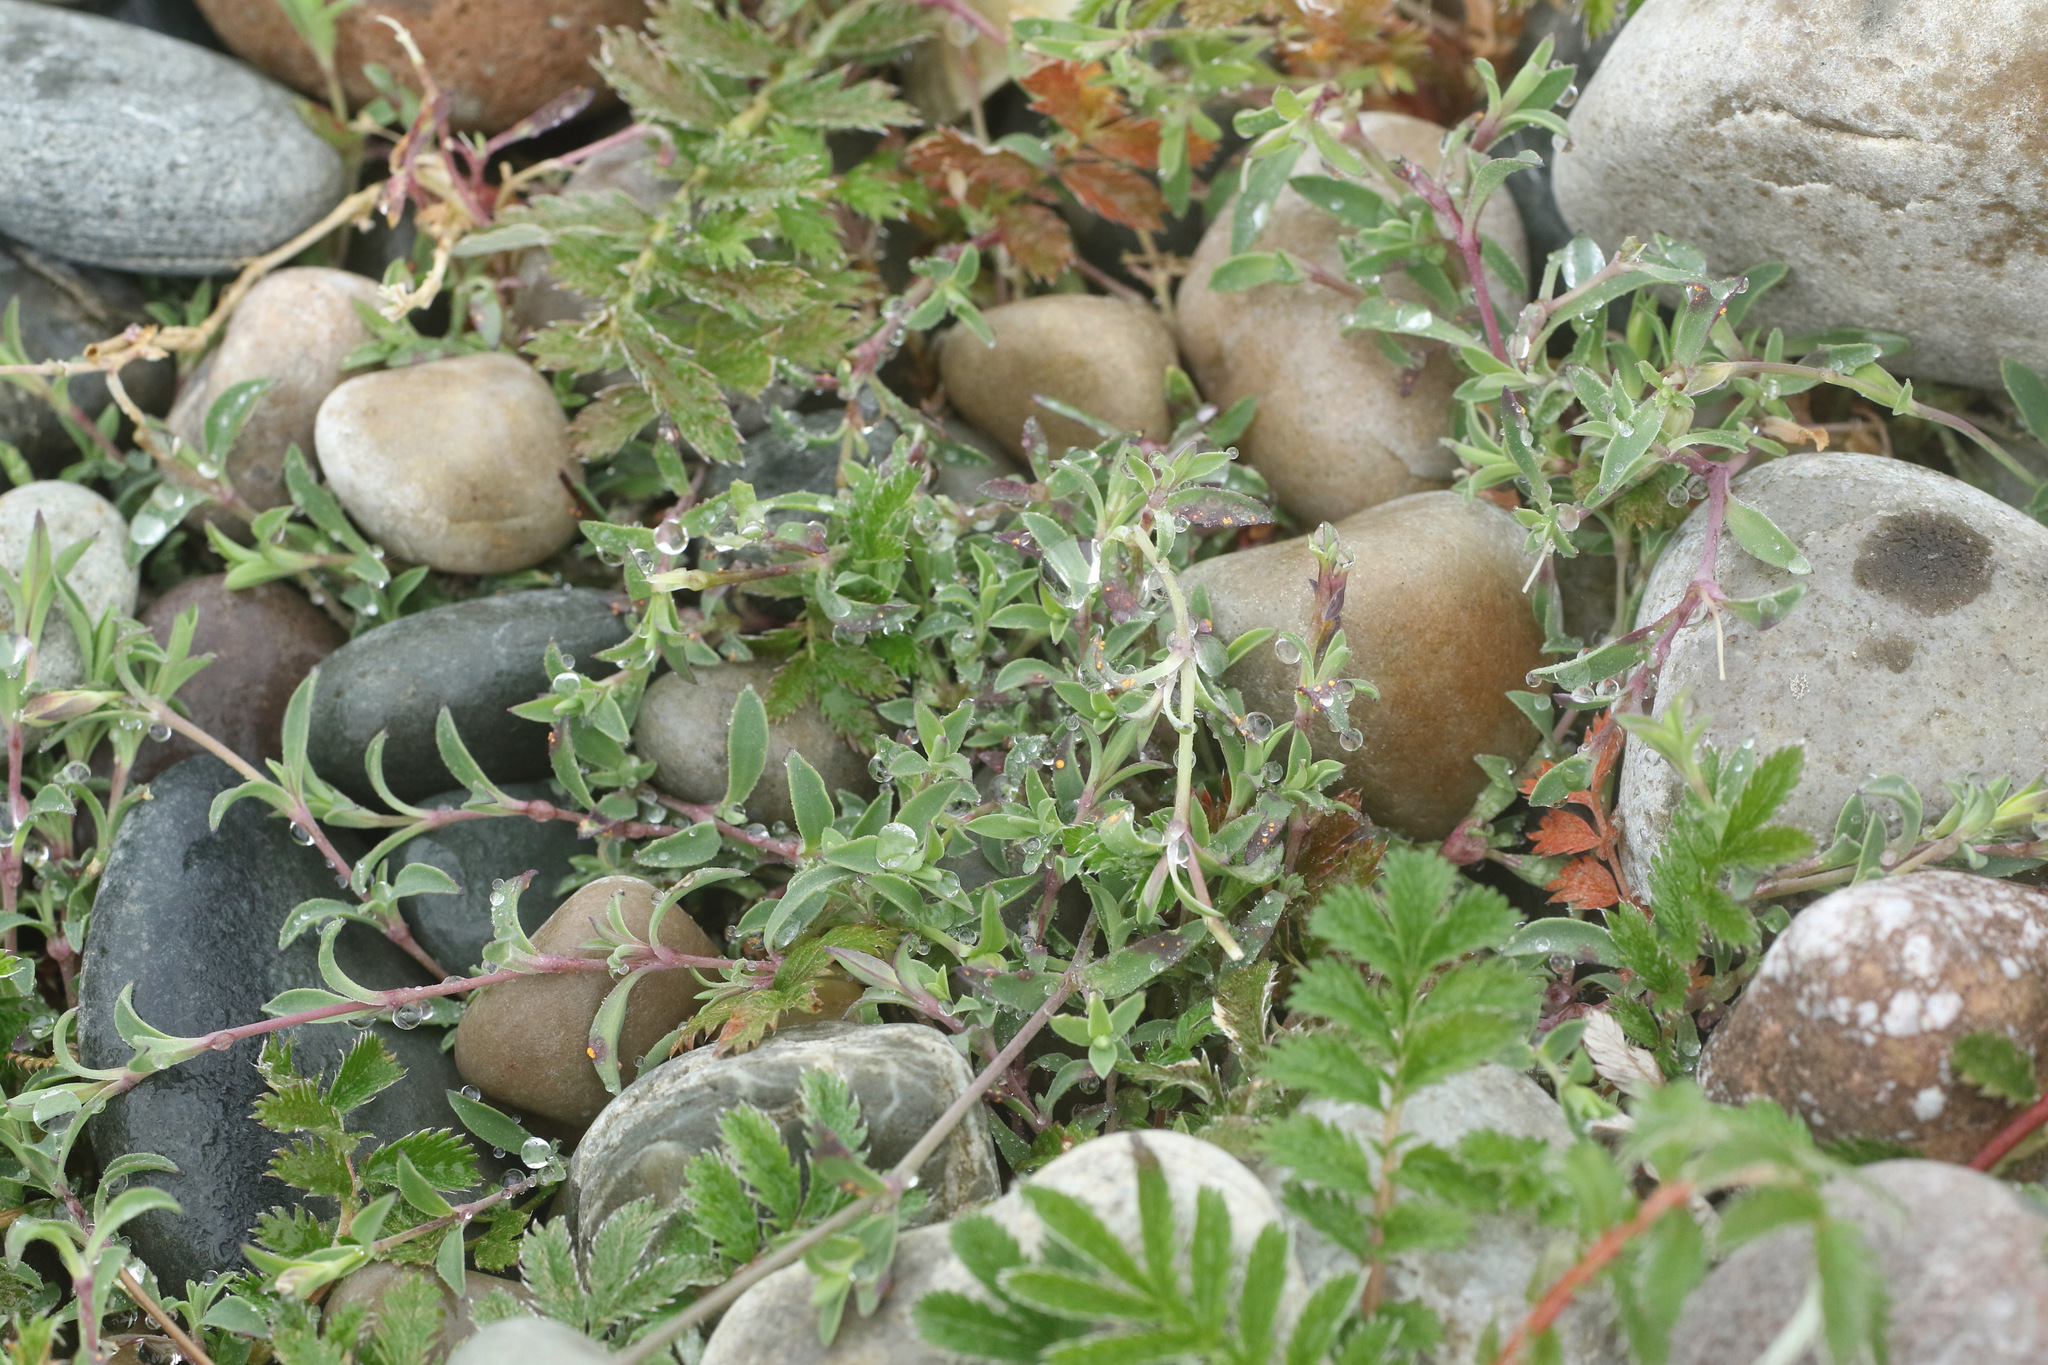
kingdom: Plantae
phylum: Tracheophyta
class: Magnoliopsida
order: Caryophyllales
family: Caryophyllaceae
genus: Silene
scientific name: Silene uniflora
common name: Sea campion
